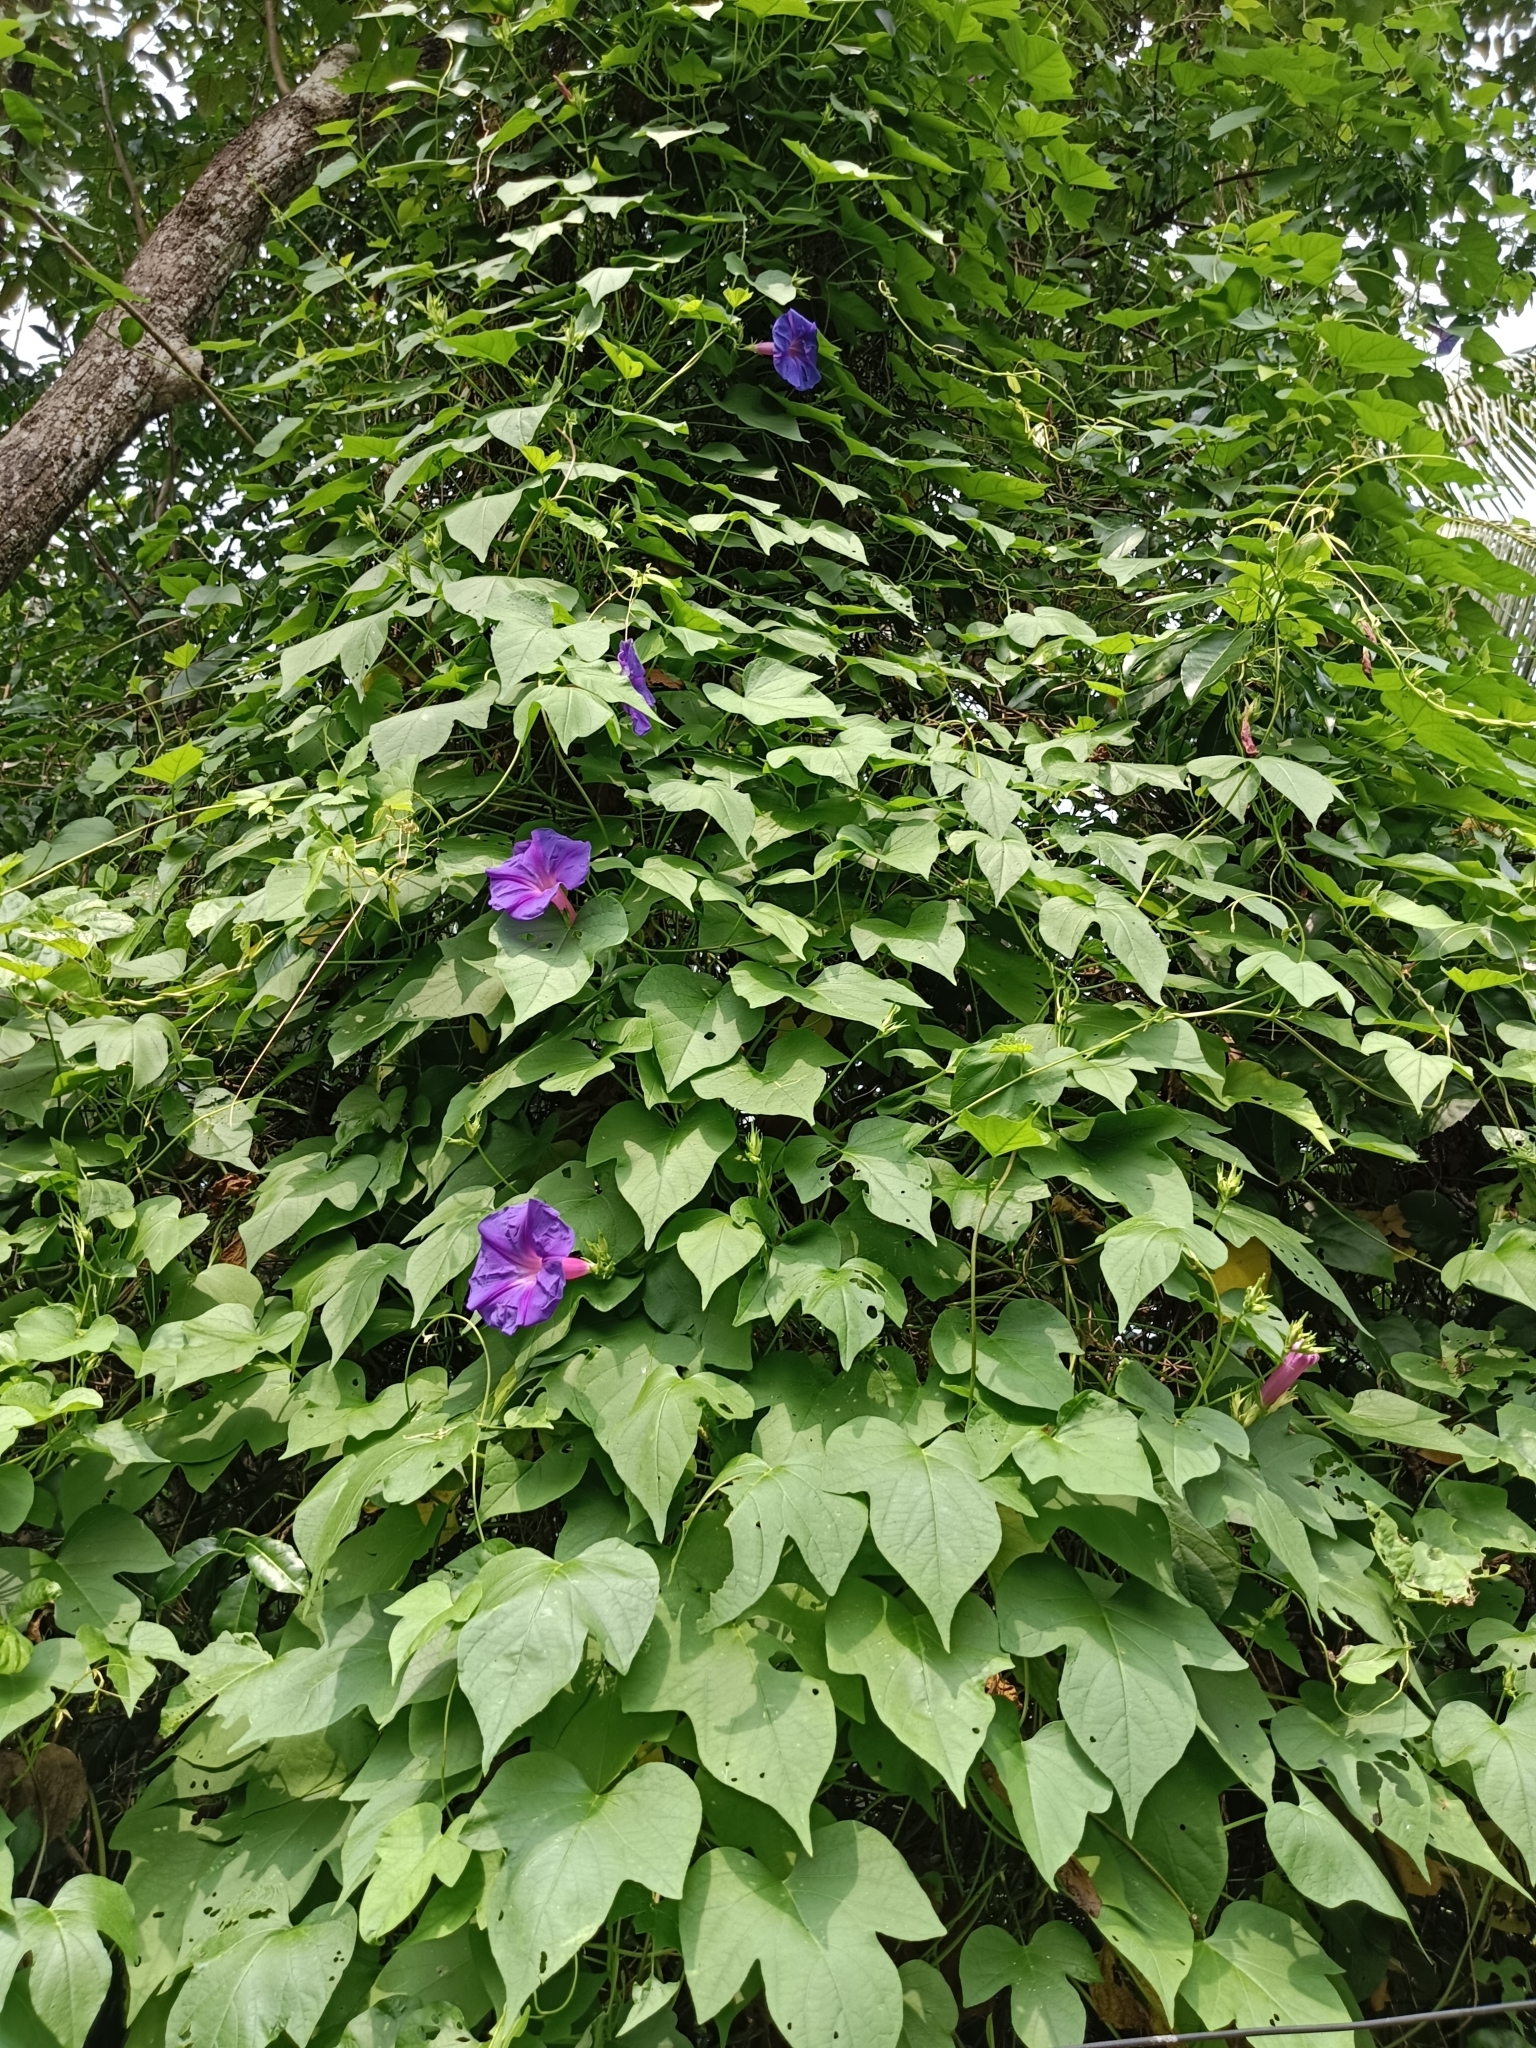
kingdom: Plantae
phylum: Tracheophyta
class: Magnoliopsida
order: Solanales
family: Convolvulaceae
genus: Ipomoea
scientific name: Ipomoea indica
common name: Blue dawnflower
